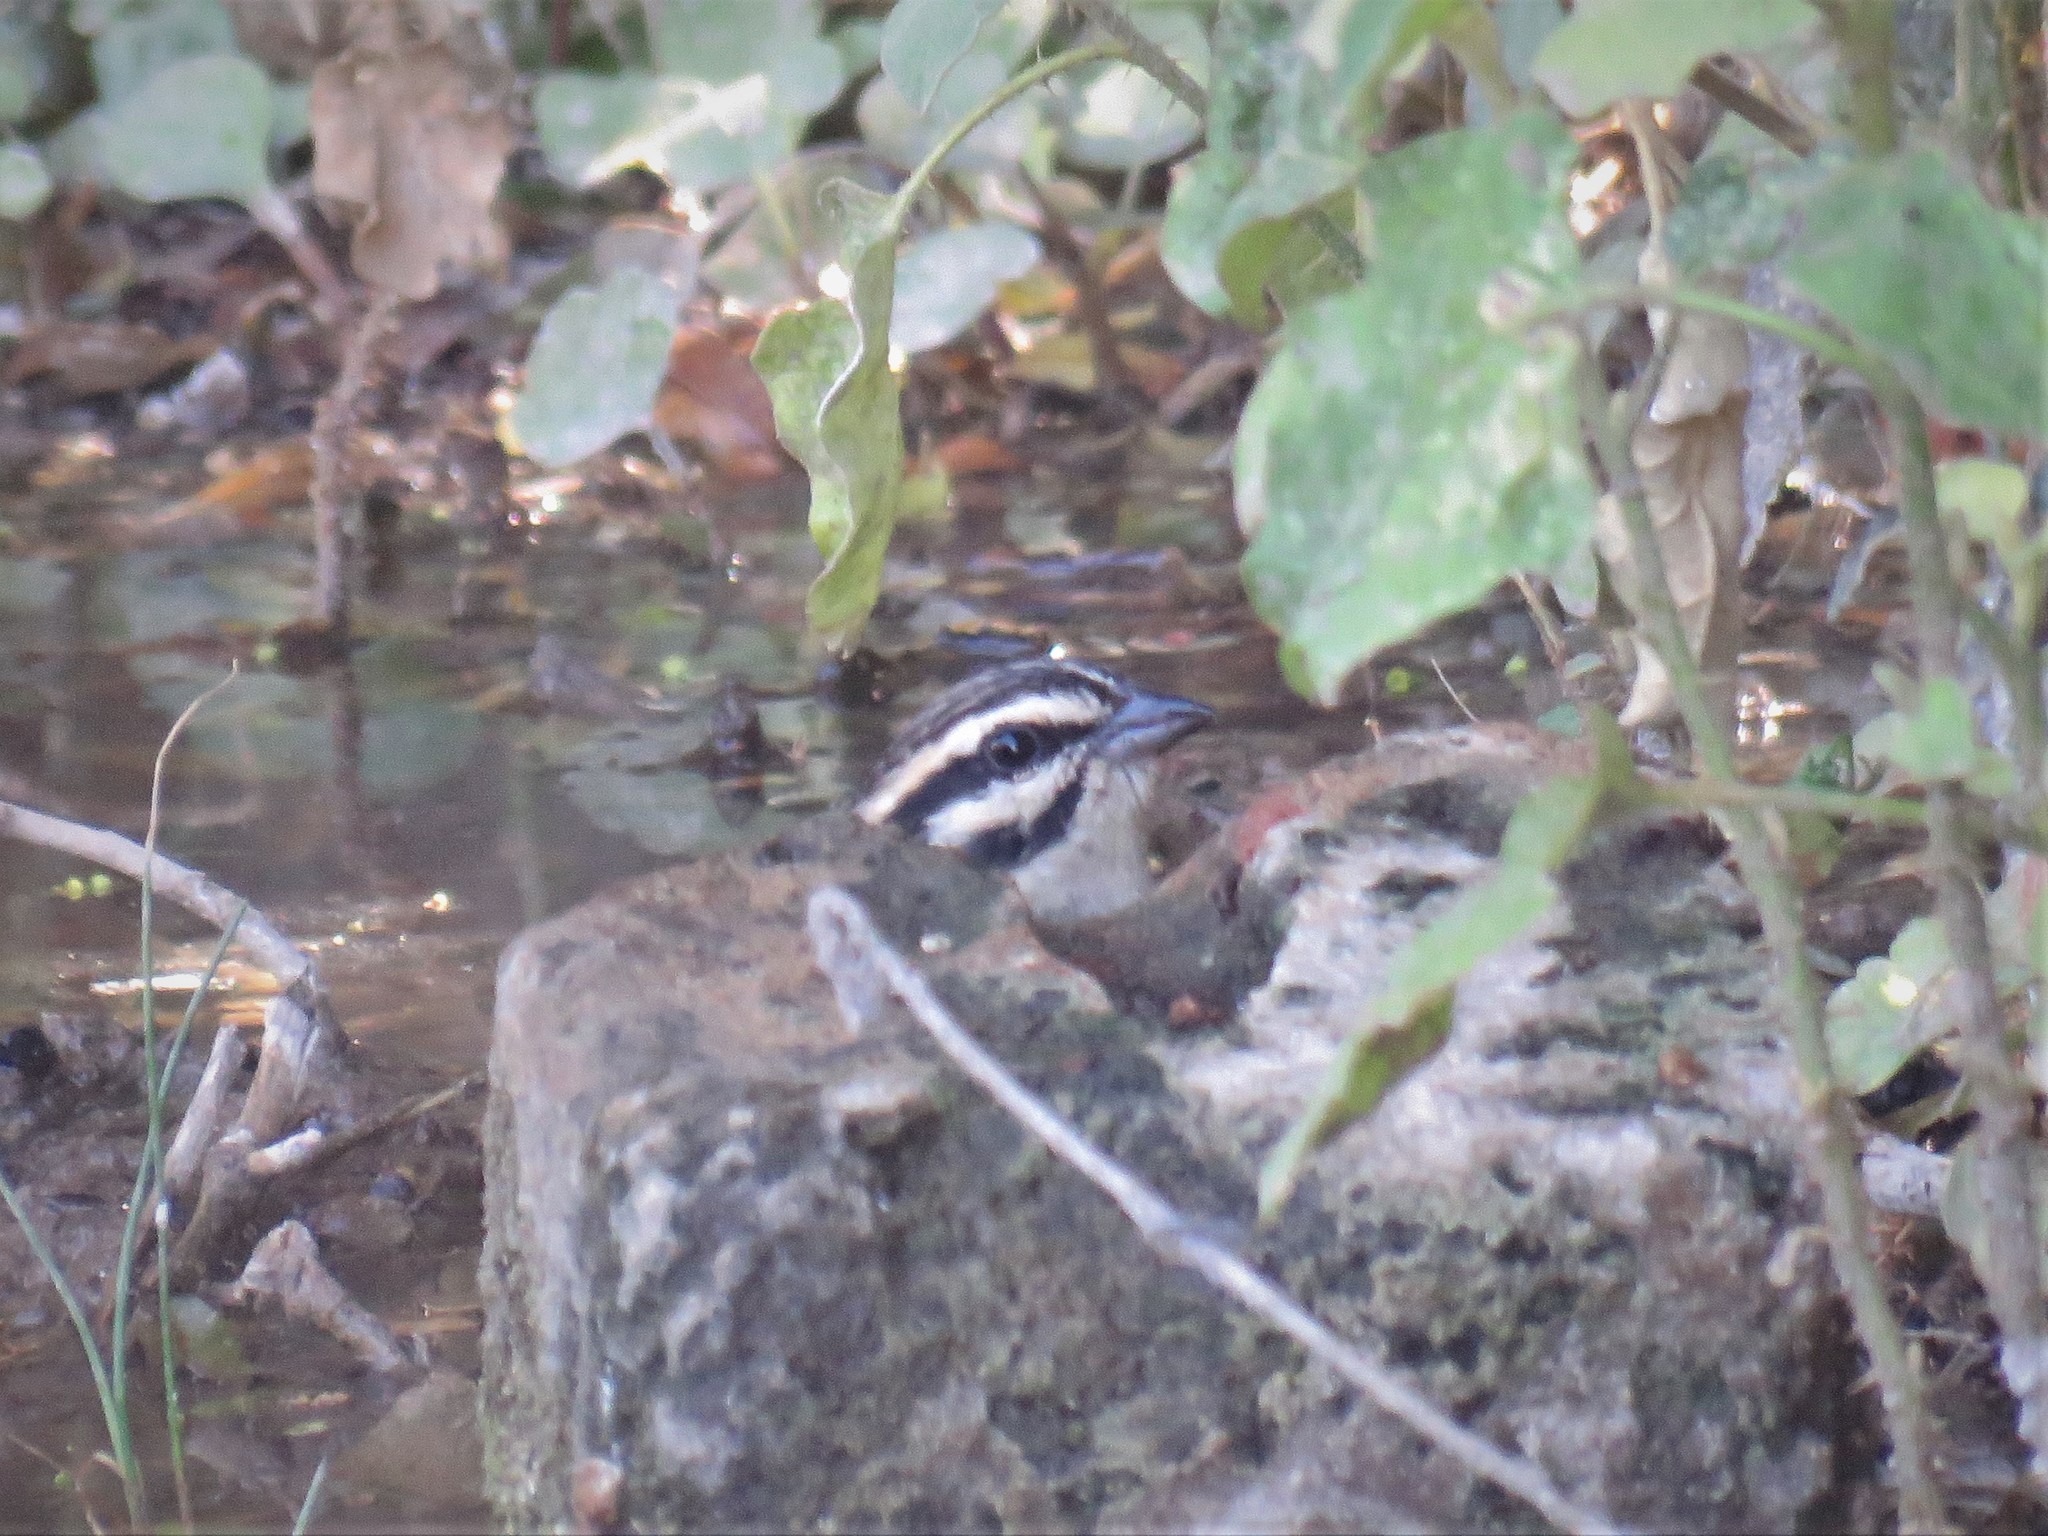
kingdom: Animalia
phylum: Chordata
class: Aves
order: Passeriformes
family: Emberizidae
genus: Emberiza
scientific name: Emberiza capensis
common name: Cape bunting
